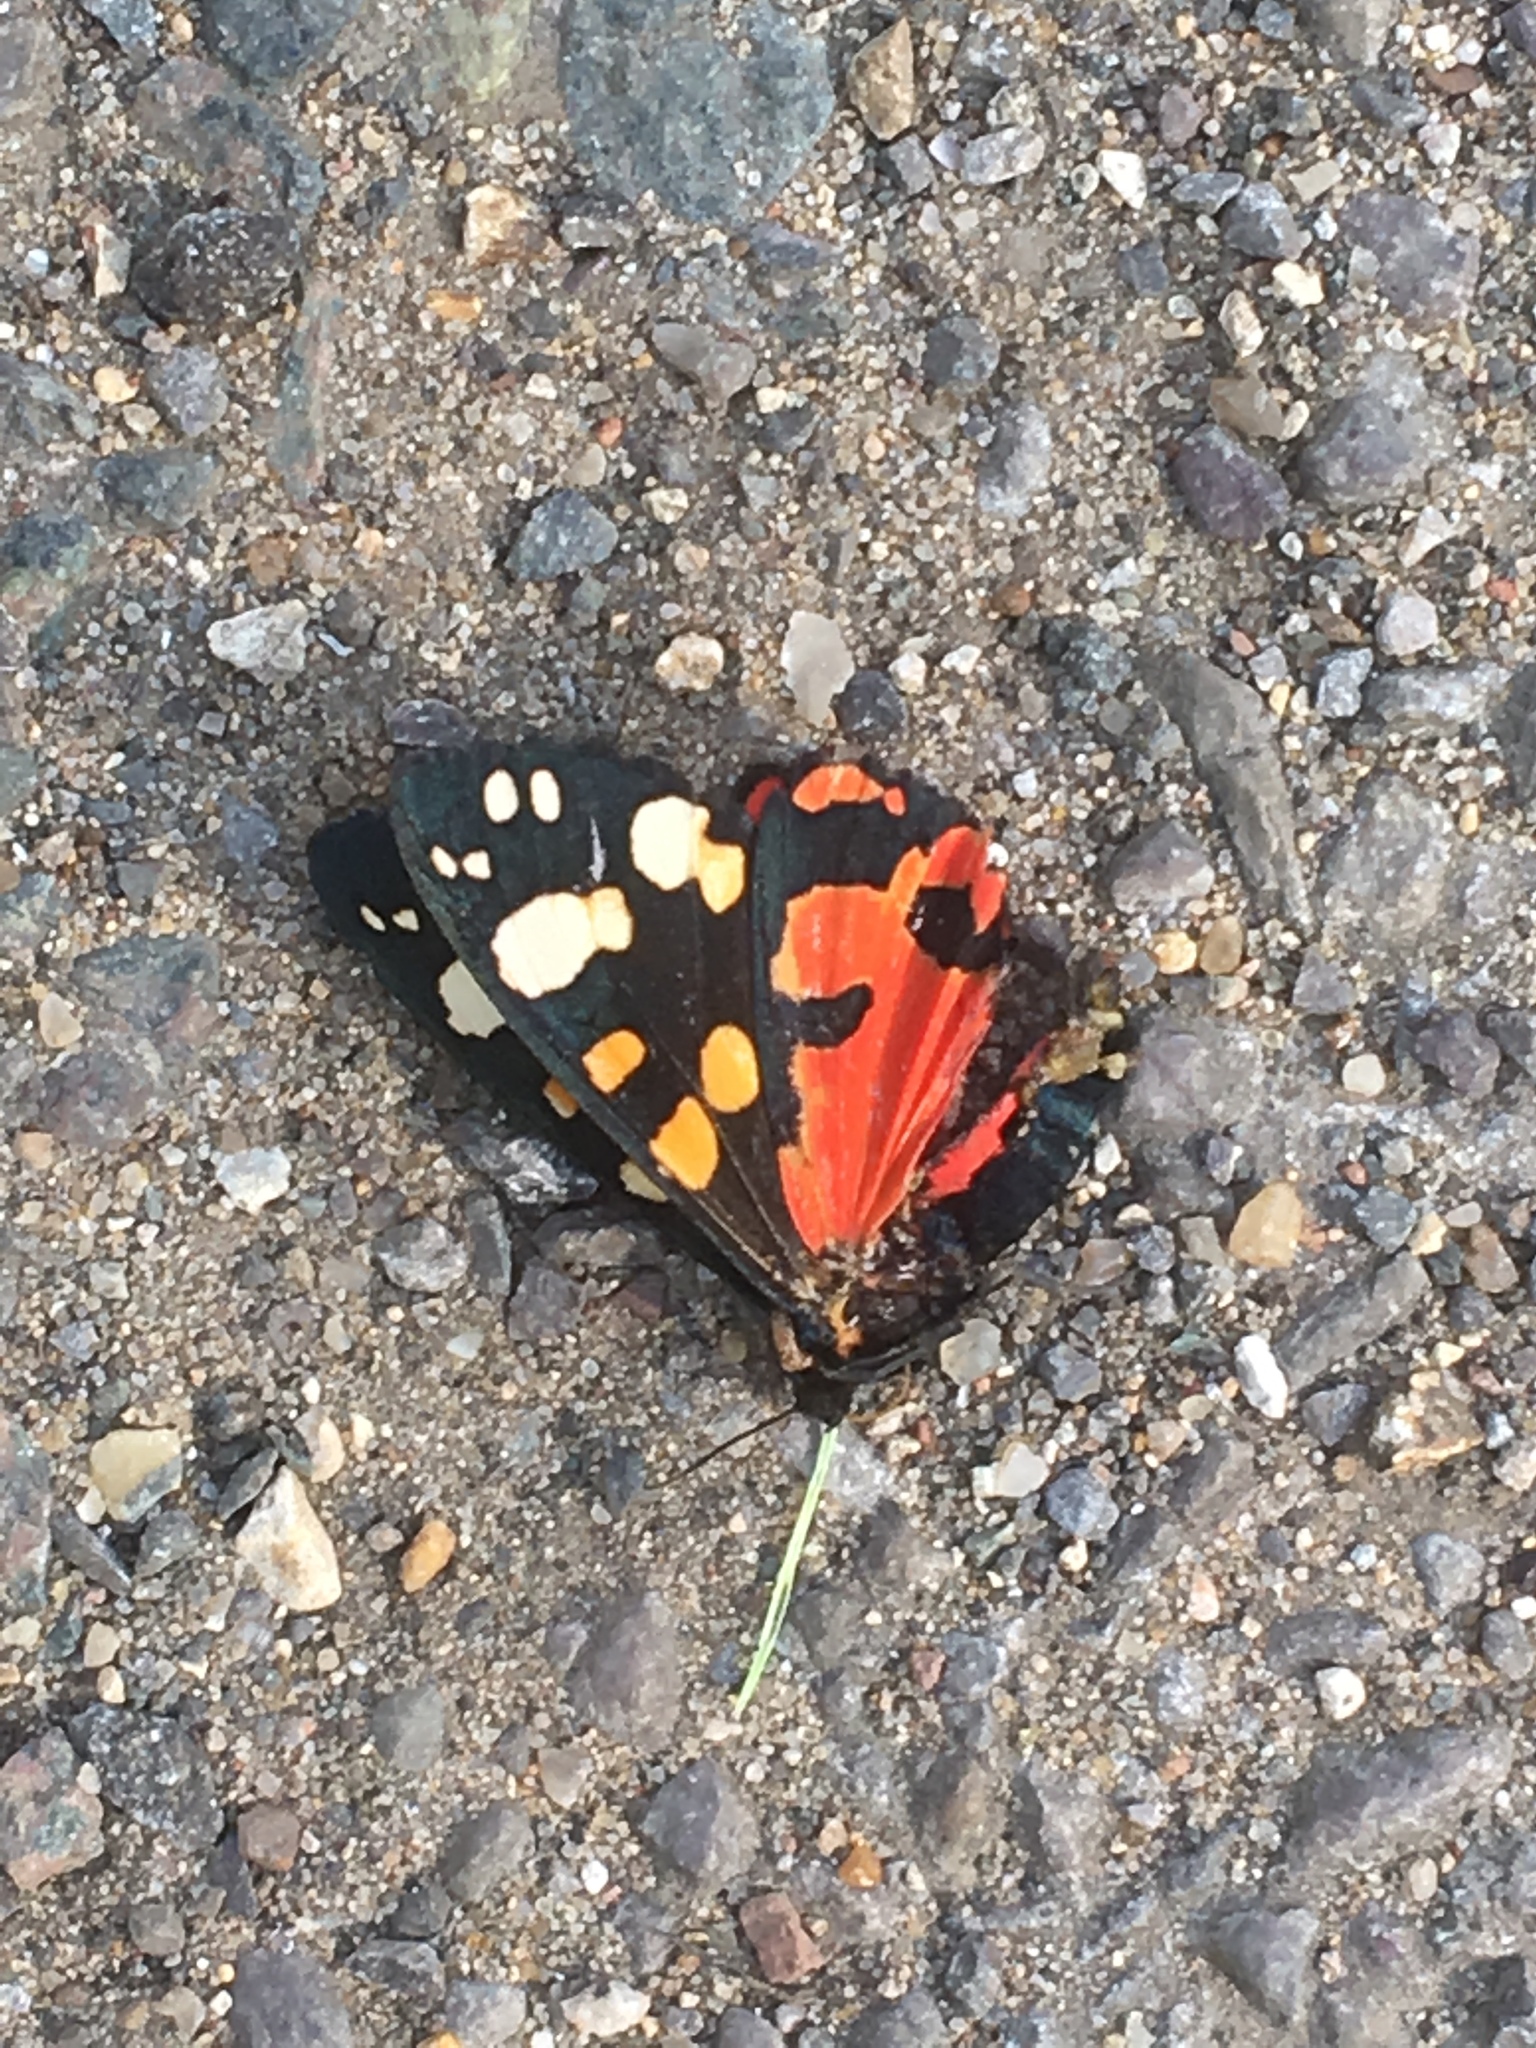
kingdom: Animalia
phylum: Arthropoda
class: Insecta
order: Lepidoptera
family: Erebidae
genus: Callimorpha
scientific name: Callimorpha dominula
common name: Scarlet tiger
